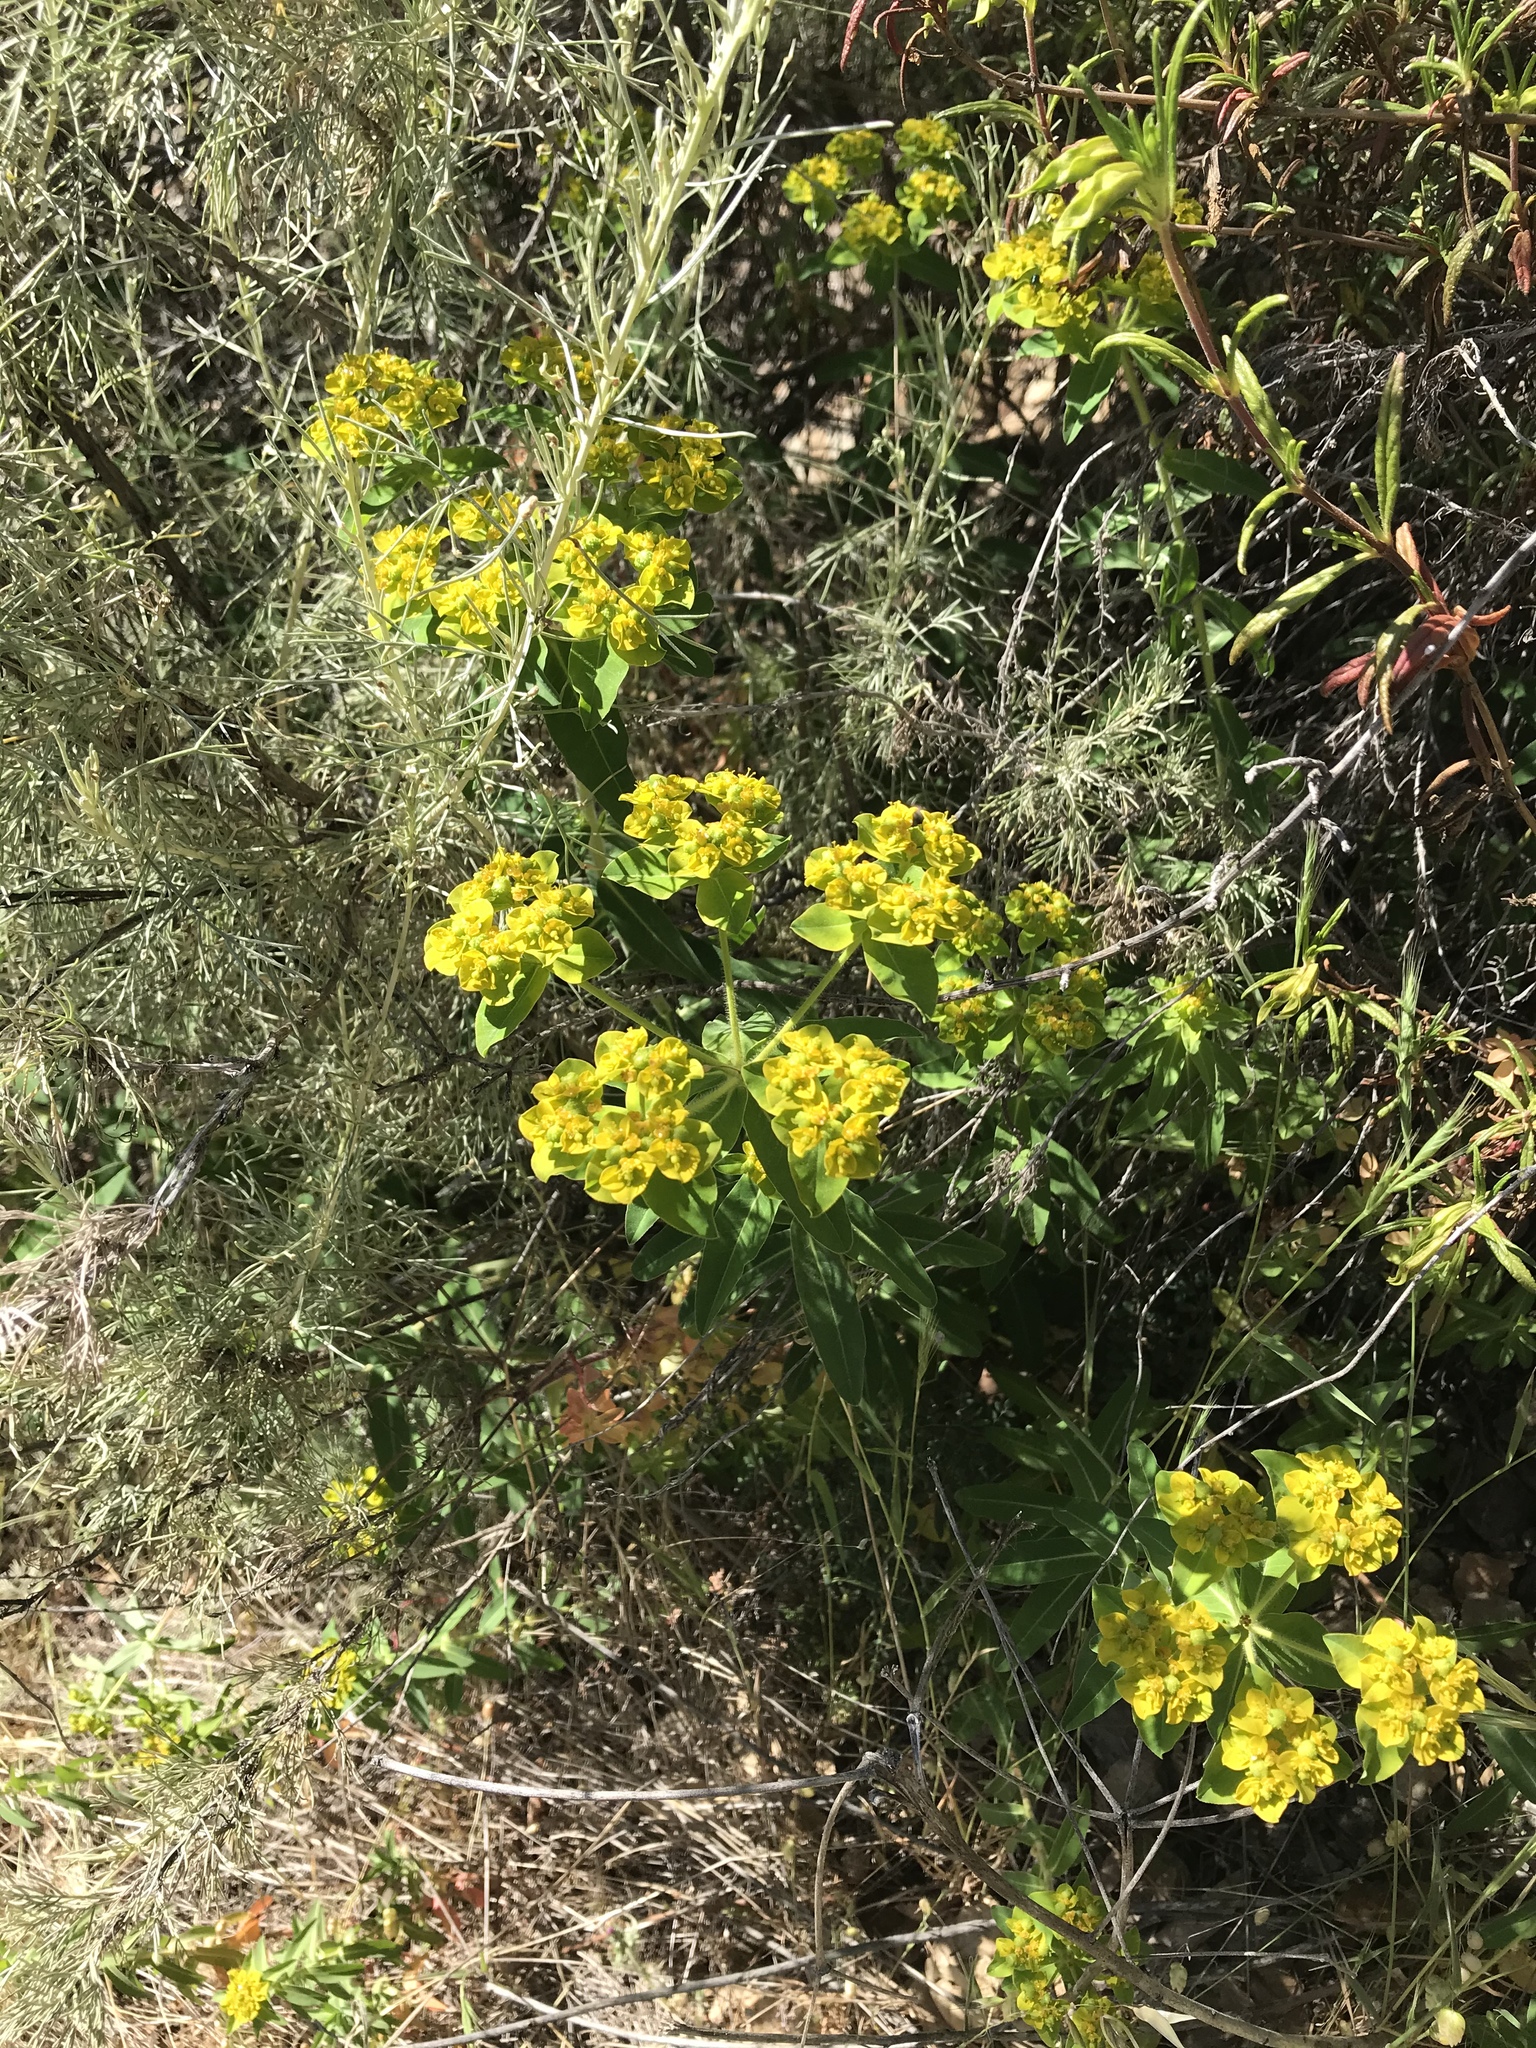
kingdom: Plantae
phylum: Tracheophyta
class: Magnoliopsida
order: Malpighiales
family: Euphorbiaceae
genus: Euphorbia
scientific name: Euphorbia oblongata
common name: Balkan spurge
